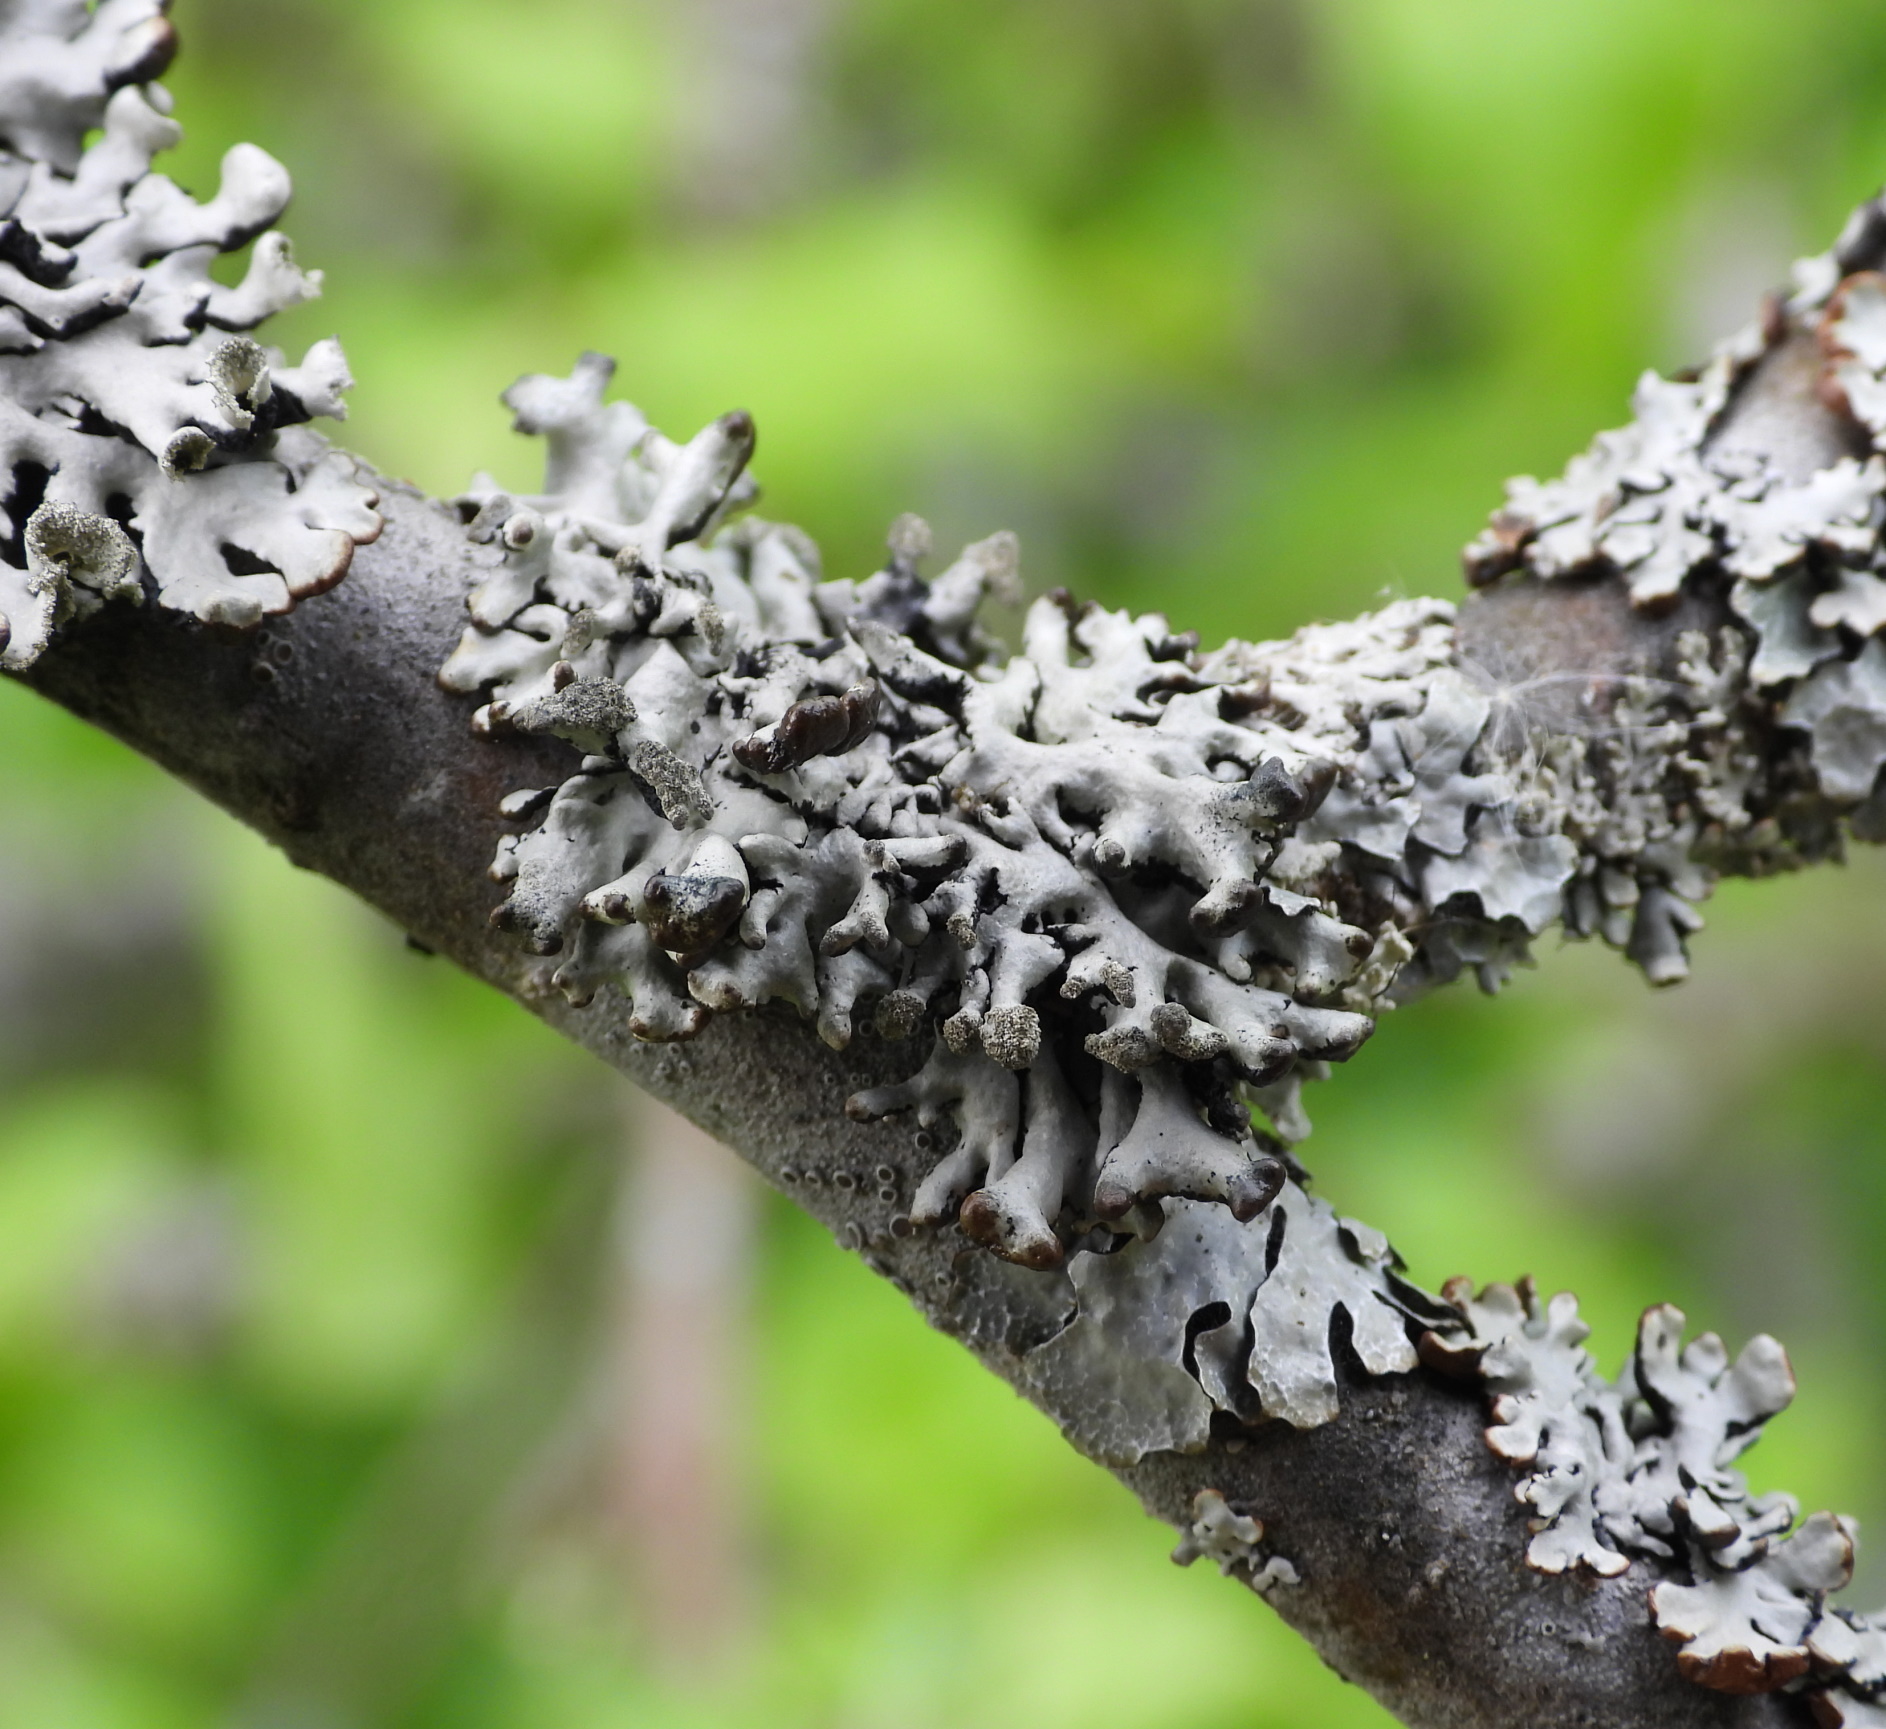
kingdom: Fungi
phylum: Ascomycota
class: Lecanoromycetes
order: Lecanorales
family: Parmeliaceae
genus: Hypogymnia
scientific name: Hypogymnia tubulosa
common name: Powder-headed tube lichen
